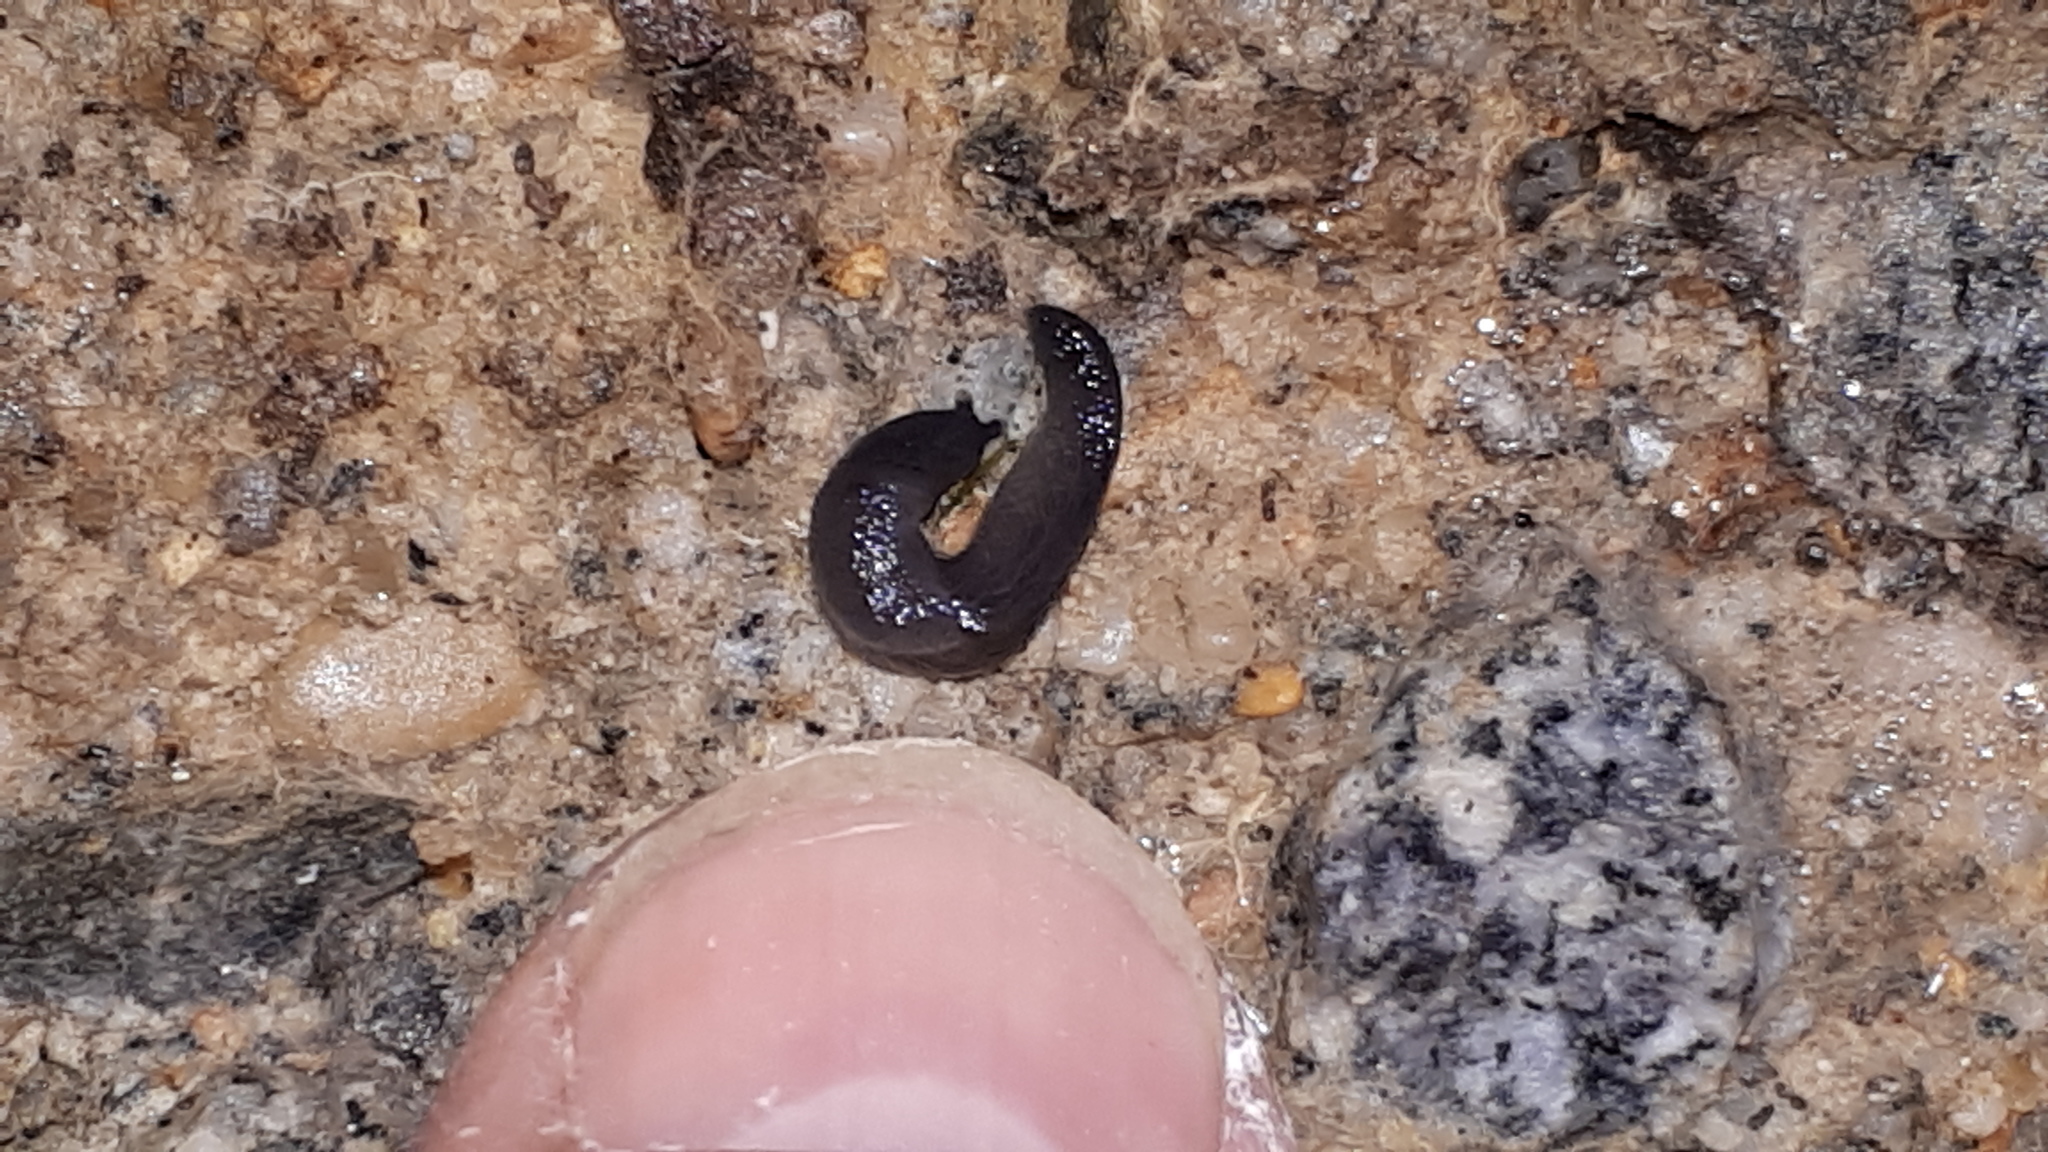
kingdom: Animalia
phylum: Mollusca
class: Gastropoda
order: Stylommatophora
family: Boettgerillidae
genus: Boettgerilla
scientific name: Boettgerilla pallens
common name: Worm slug
